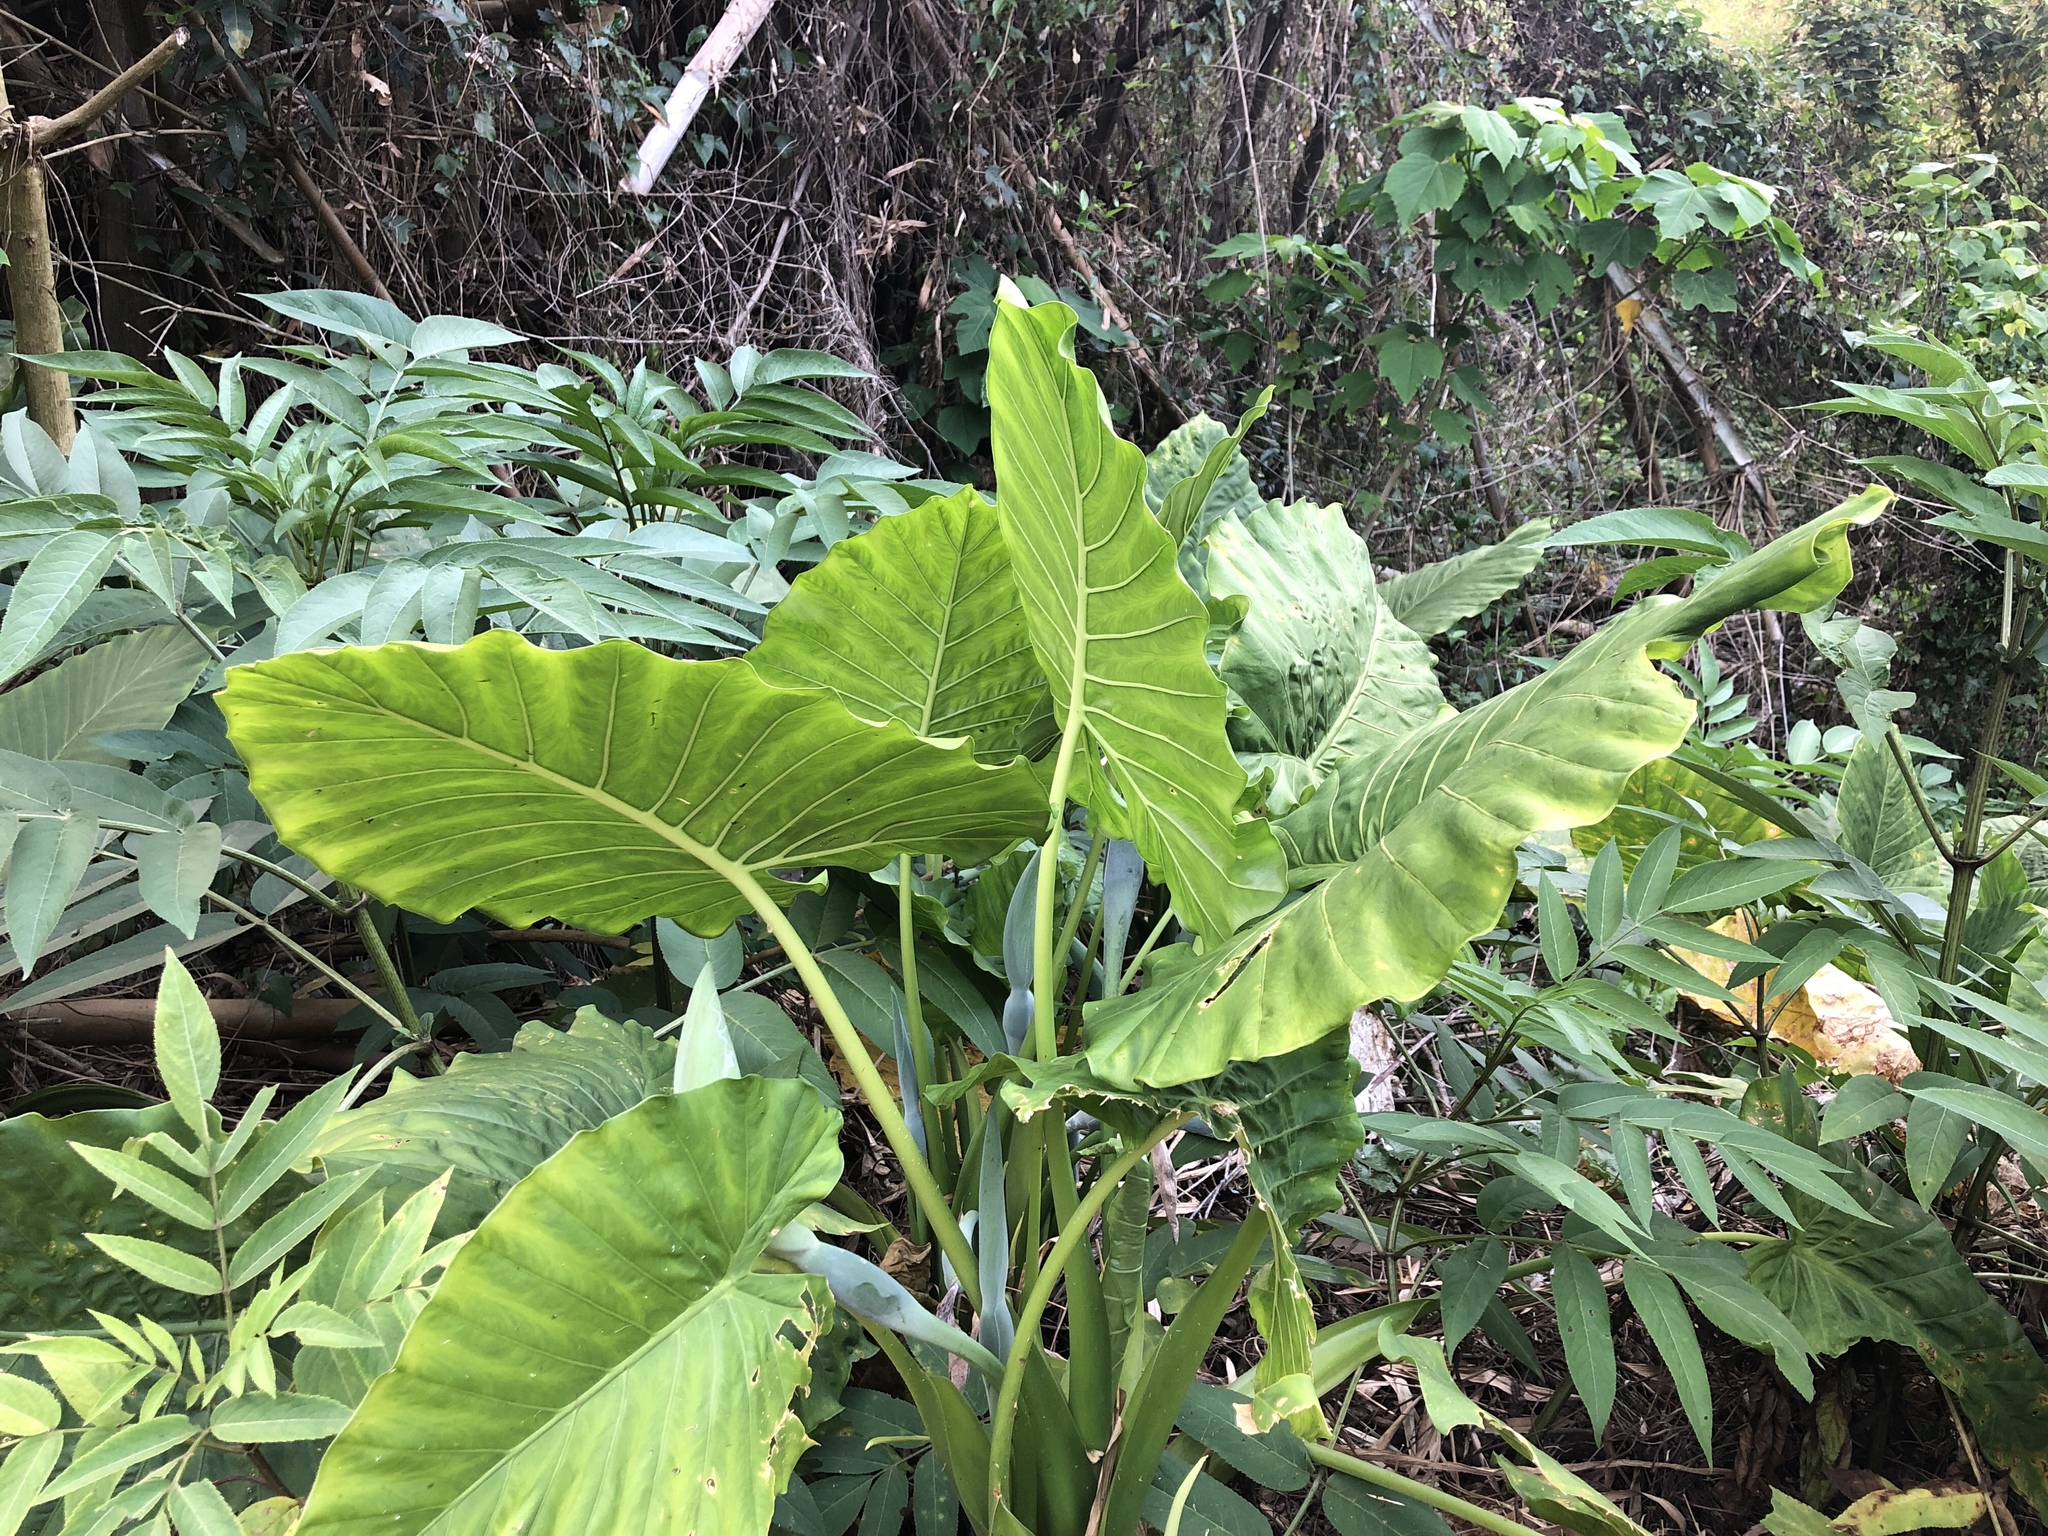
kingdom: Plantae
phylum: Tracheophyta
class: Liliopsida
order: Alismatales
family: Araceae
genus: Alocasia
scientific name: Alocasia odora
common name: Asian taro
